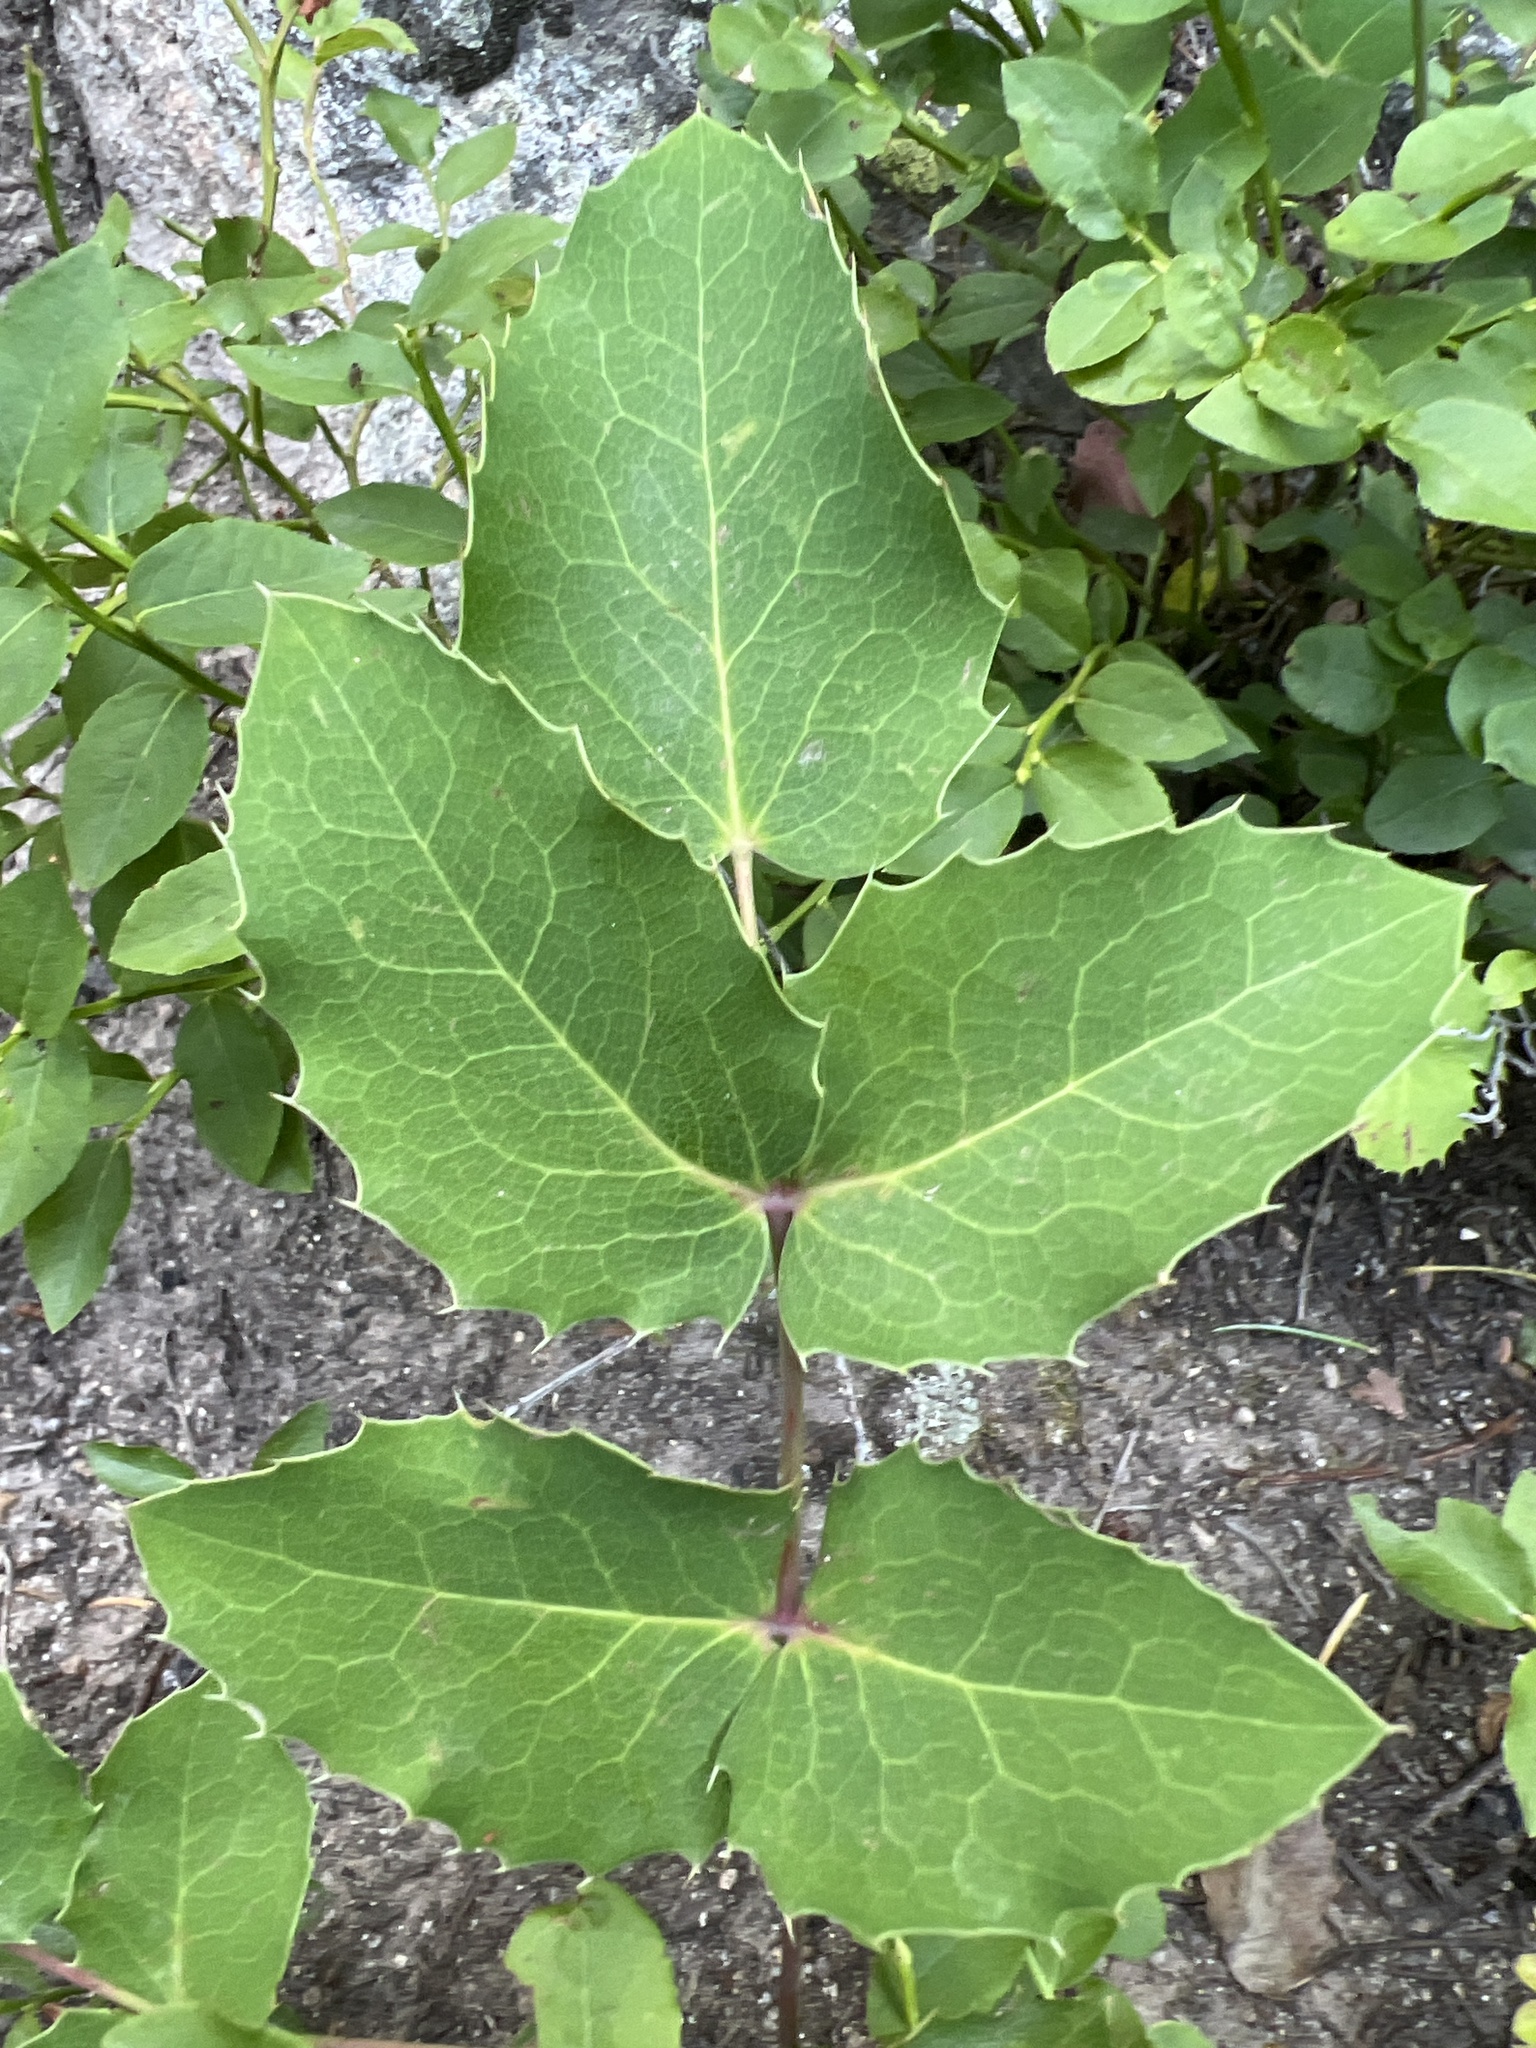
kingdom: Plantae
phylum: Tracheophyta
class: Magnoliopsida
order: Ranunculales
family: Berberidaceae
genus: Mahonia
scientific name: Mahonia repens
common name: Creeping oregon-grape
